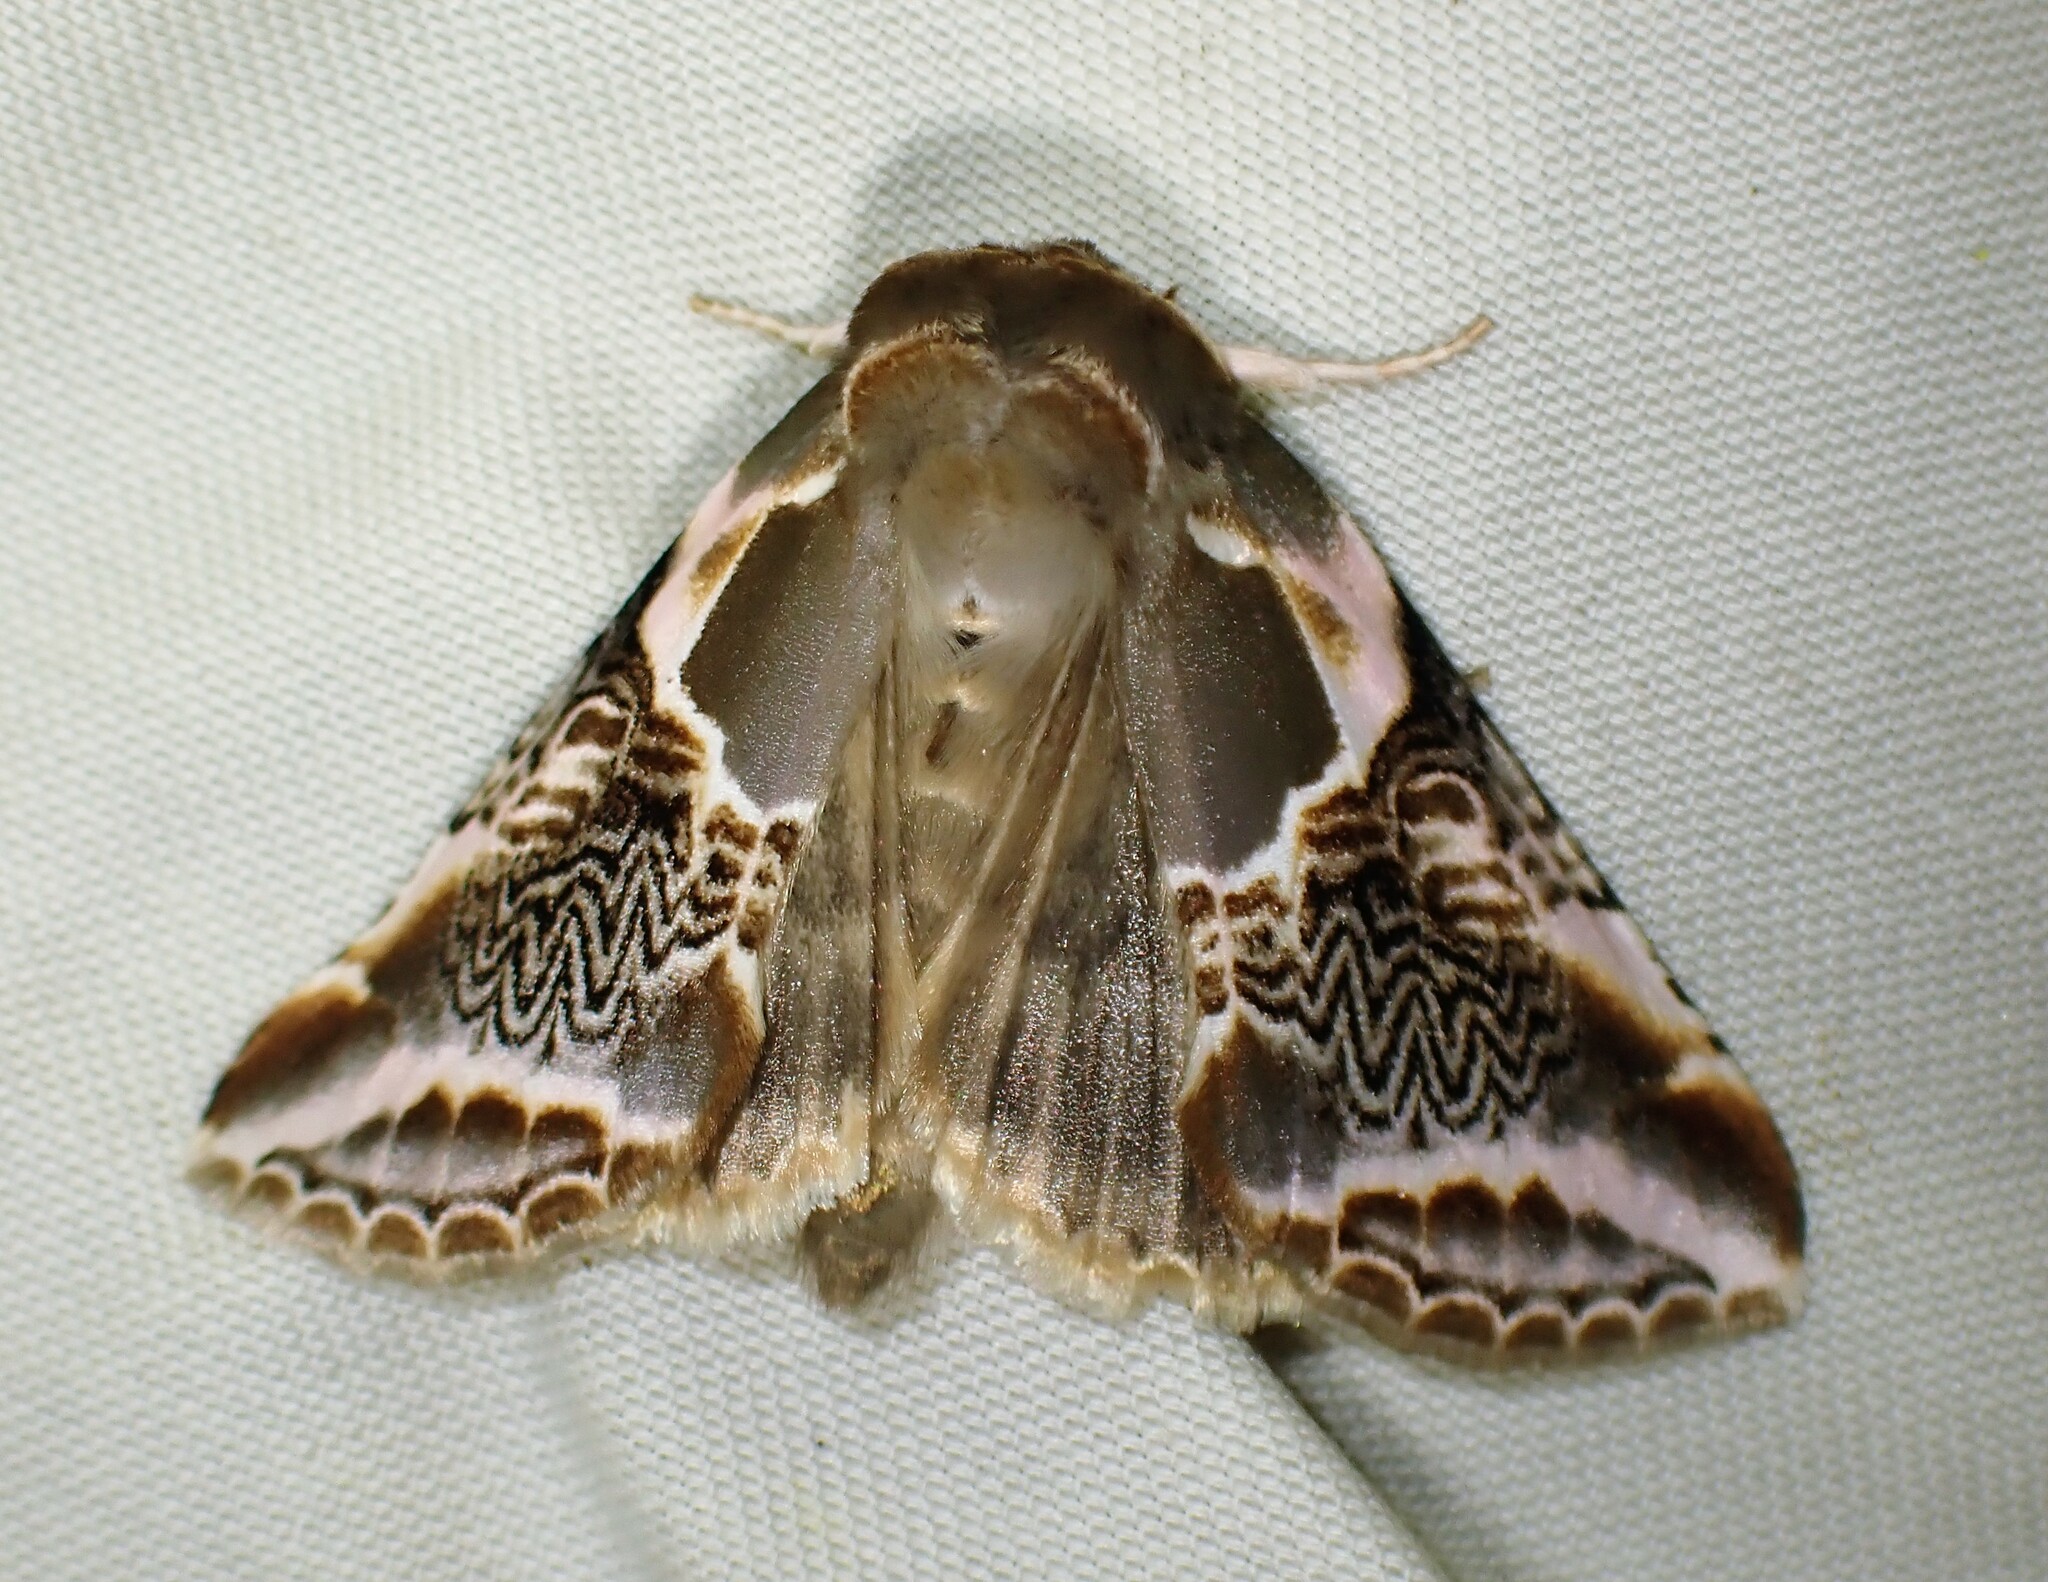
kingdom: Animalia
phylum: Arthropoda
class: Insecta
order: Lepidoptera
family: Drepanidae
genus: Habrosyne
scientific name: Habrosyne scripta
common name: Lettered habrosyne moth
